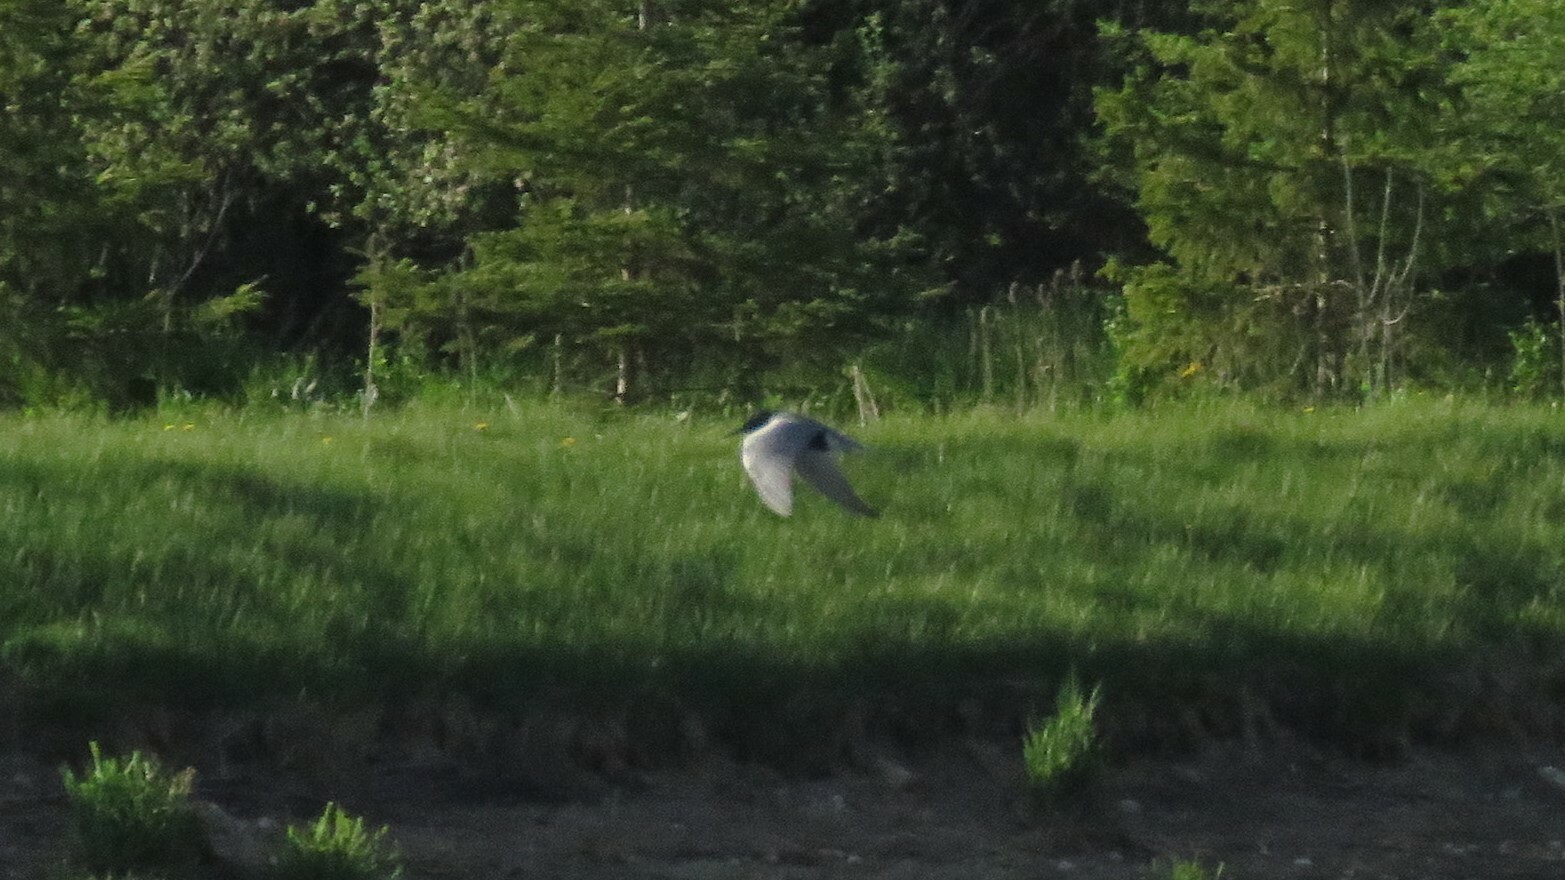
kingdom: Animalia
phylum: Chordata
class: Aves
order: Charadriiformes
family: Laridae
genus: Chlidonias
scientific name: Chlidonias niger
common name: Black tern
